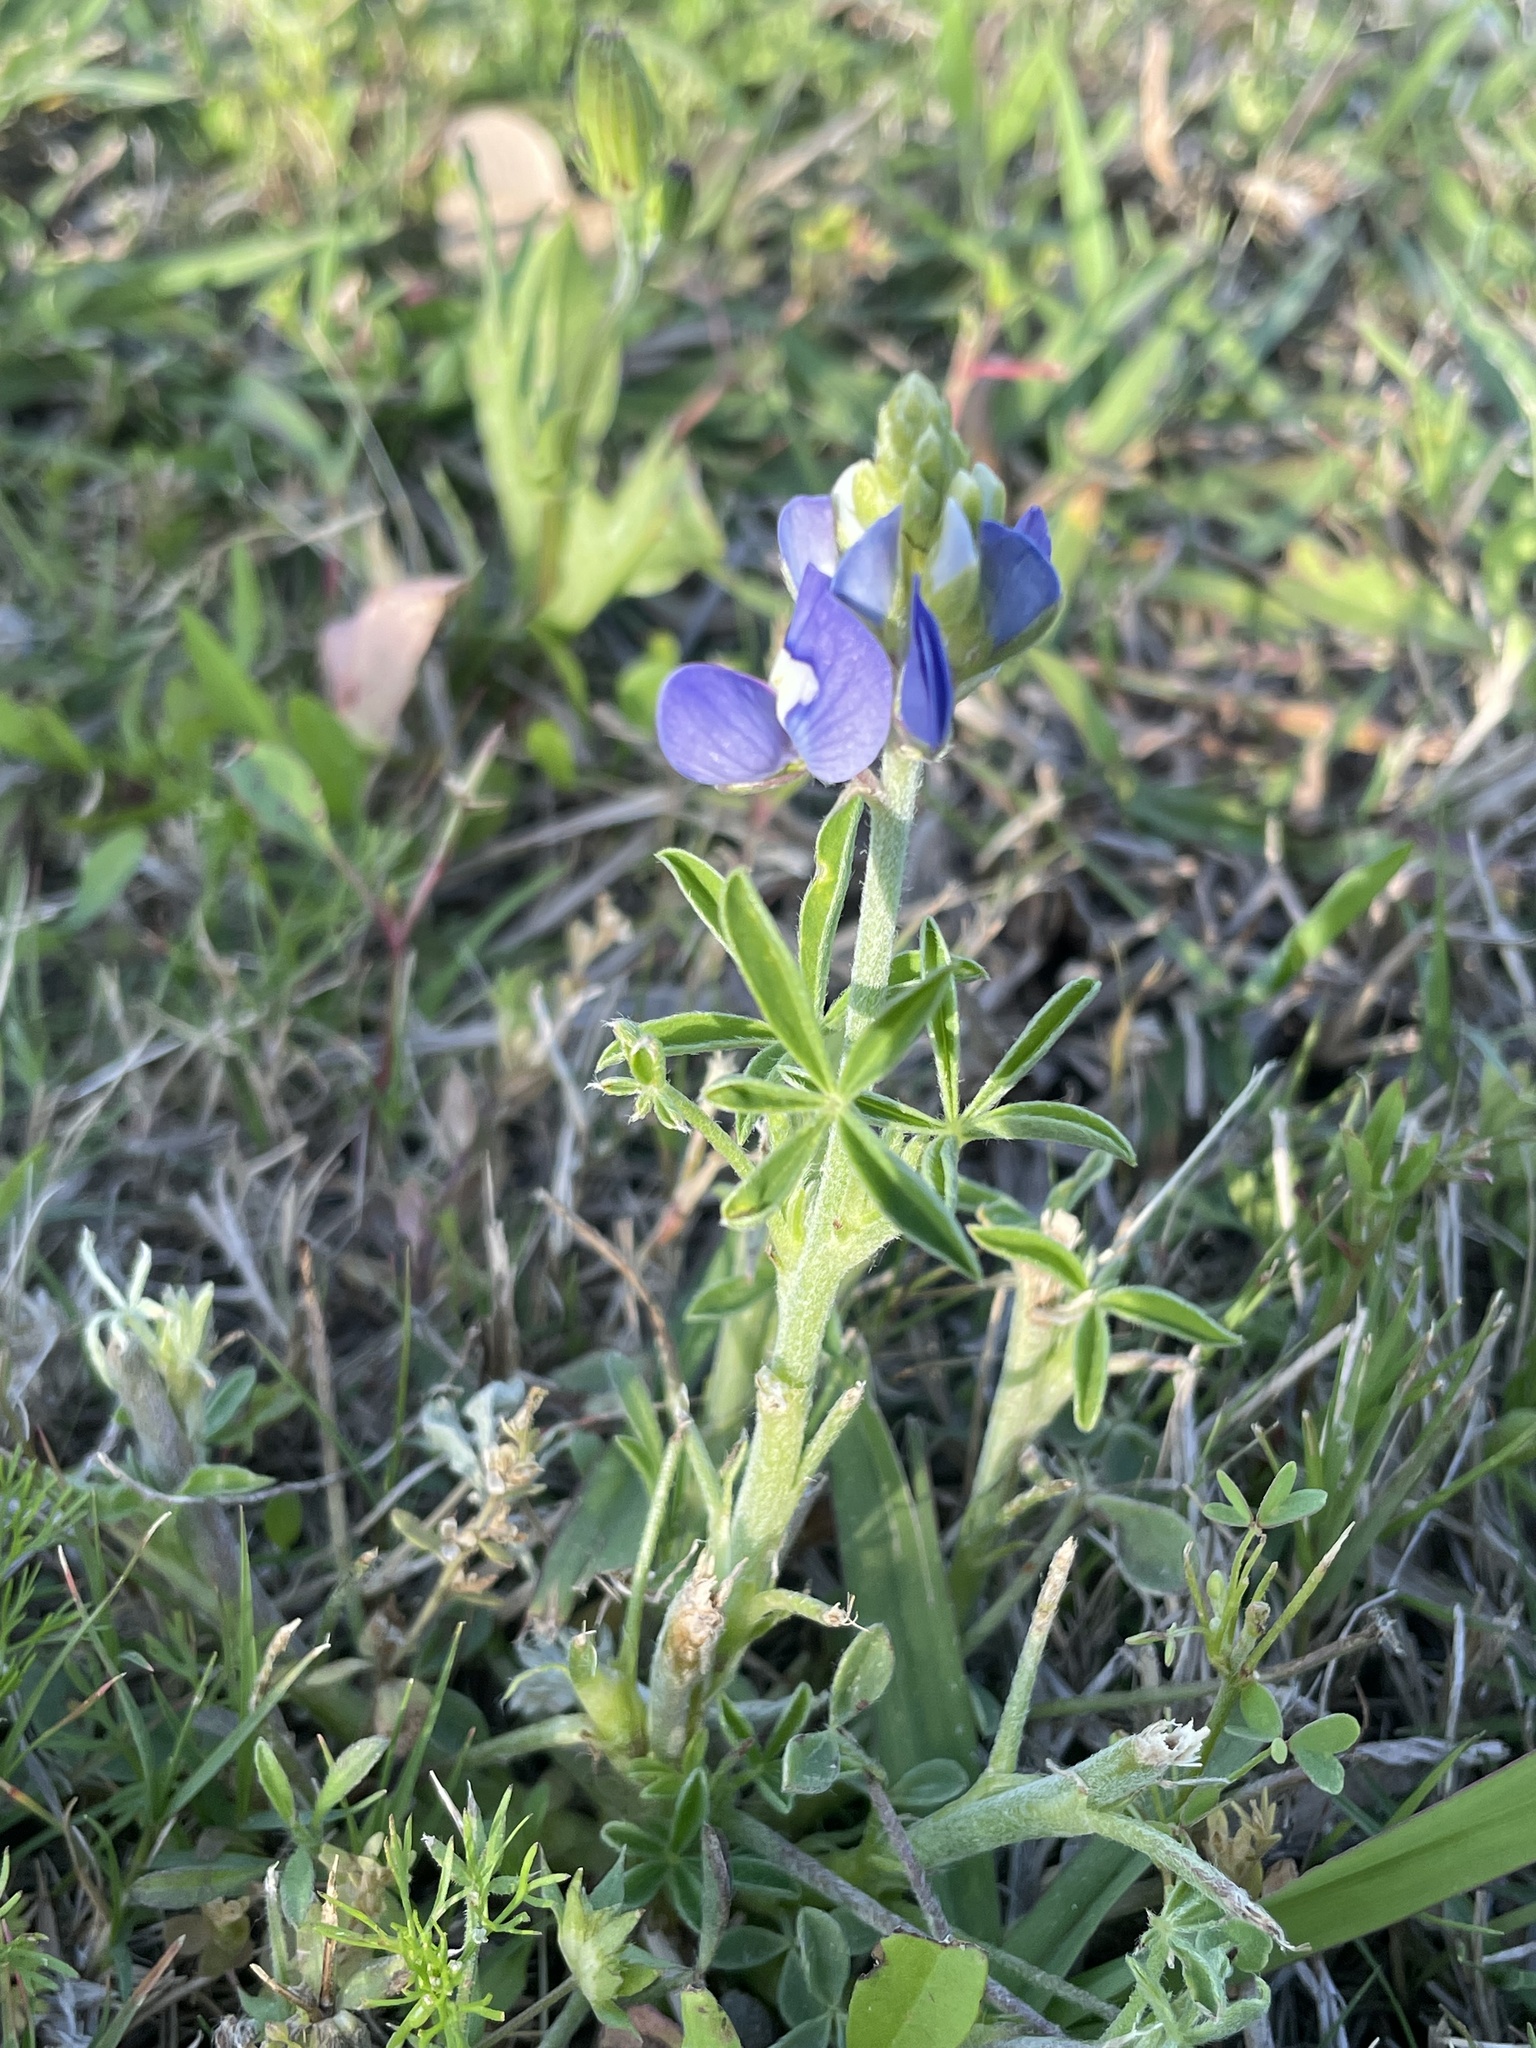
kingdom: Plantae
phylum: Tracheophyta
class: Magnoliopsida
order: Fabales
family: Fabaceae
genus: Lupinus
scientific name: Lupinus texensis
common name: Texas bluebonnet
